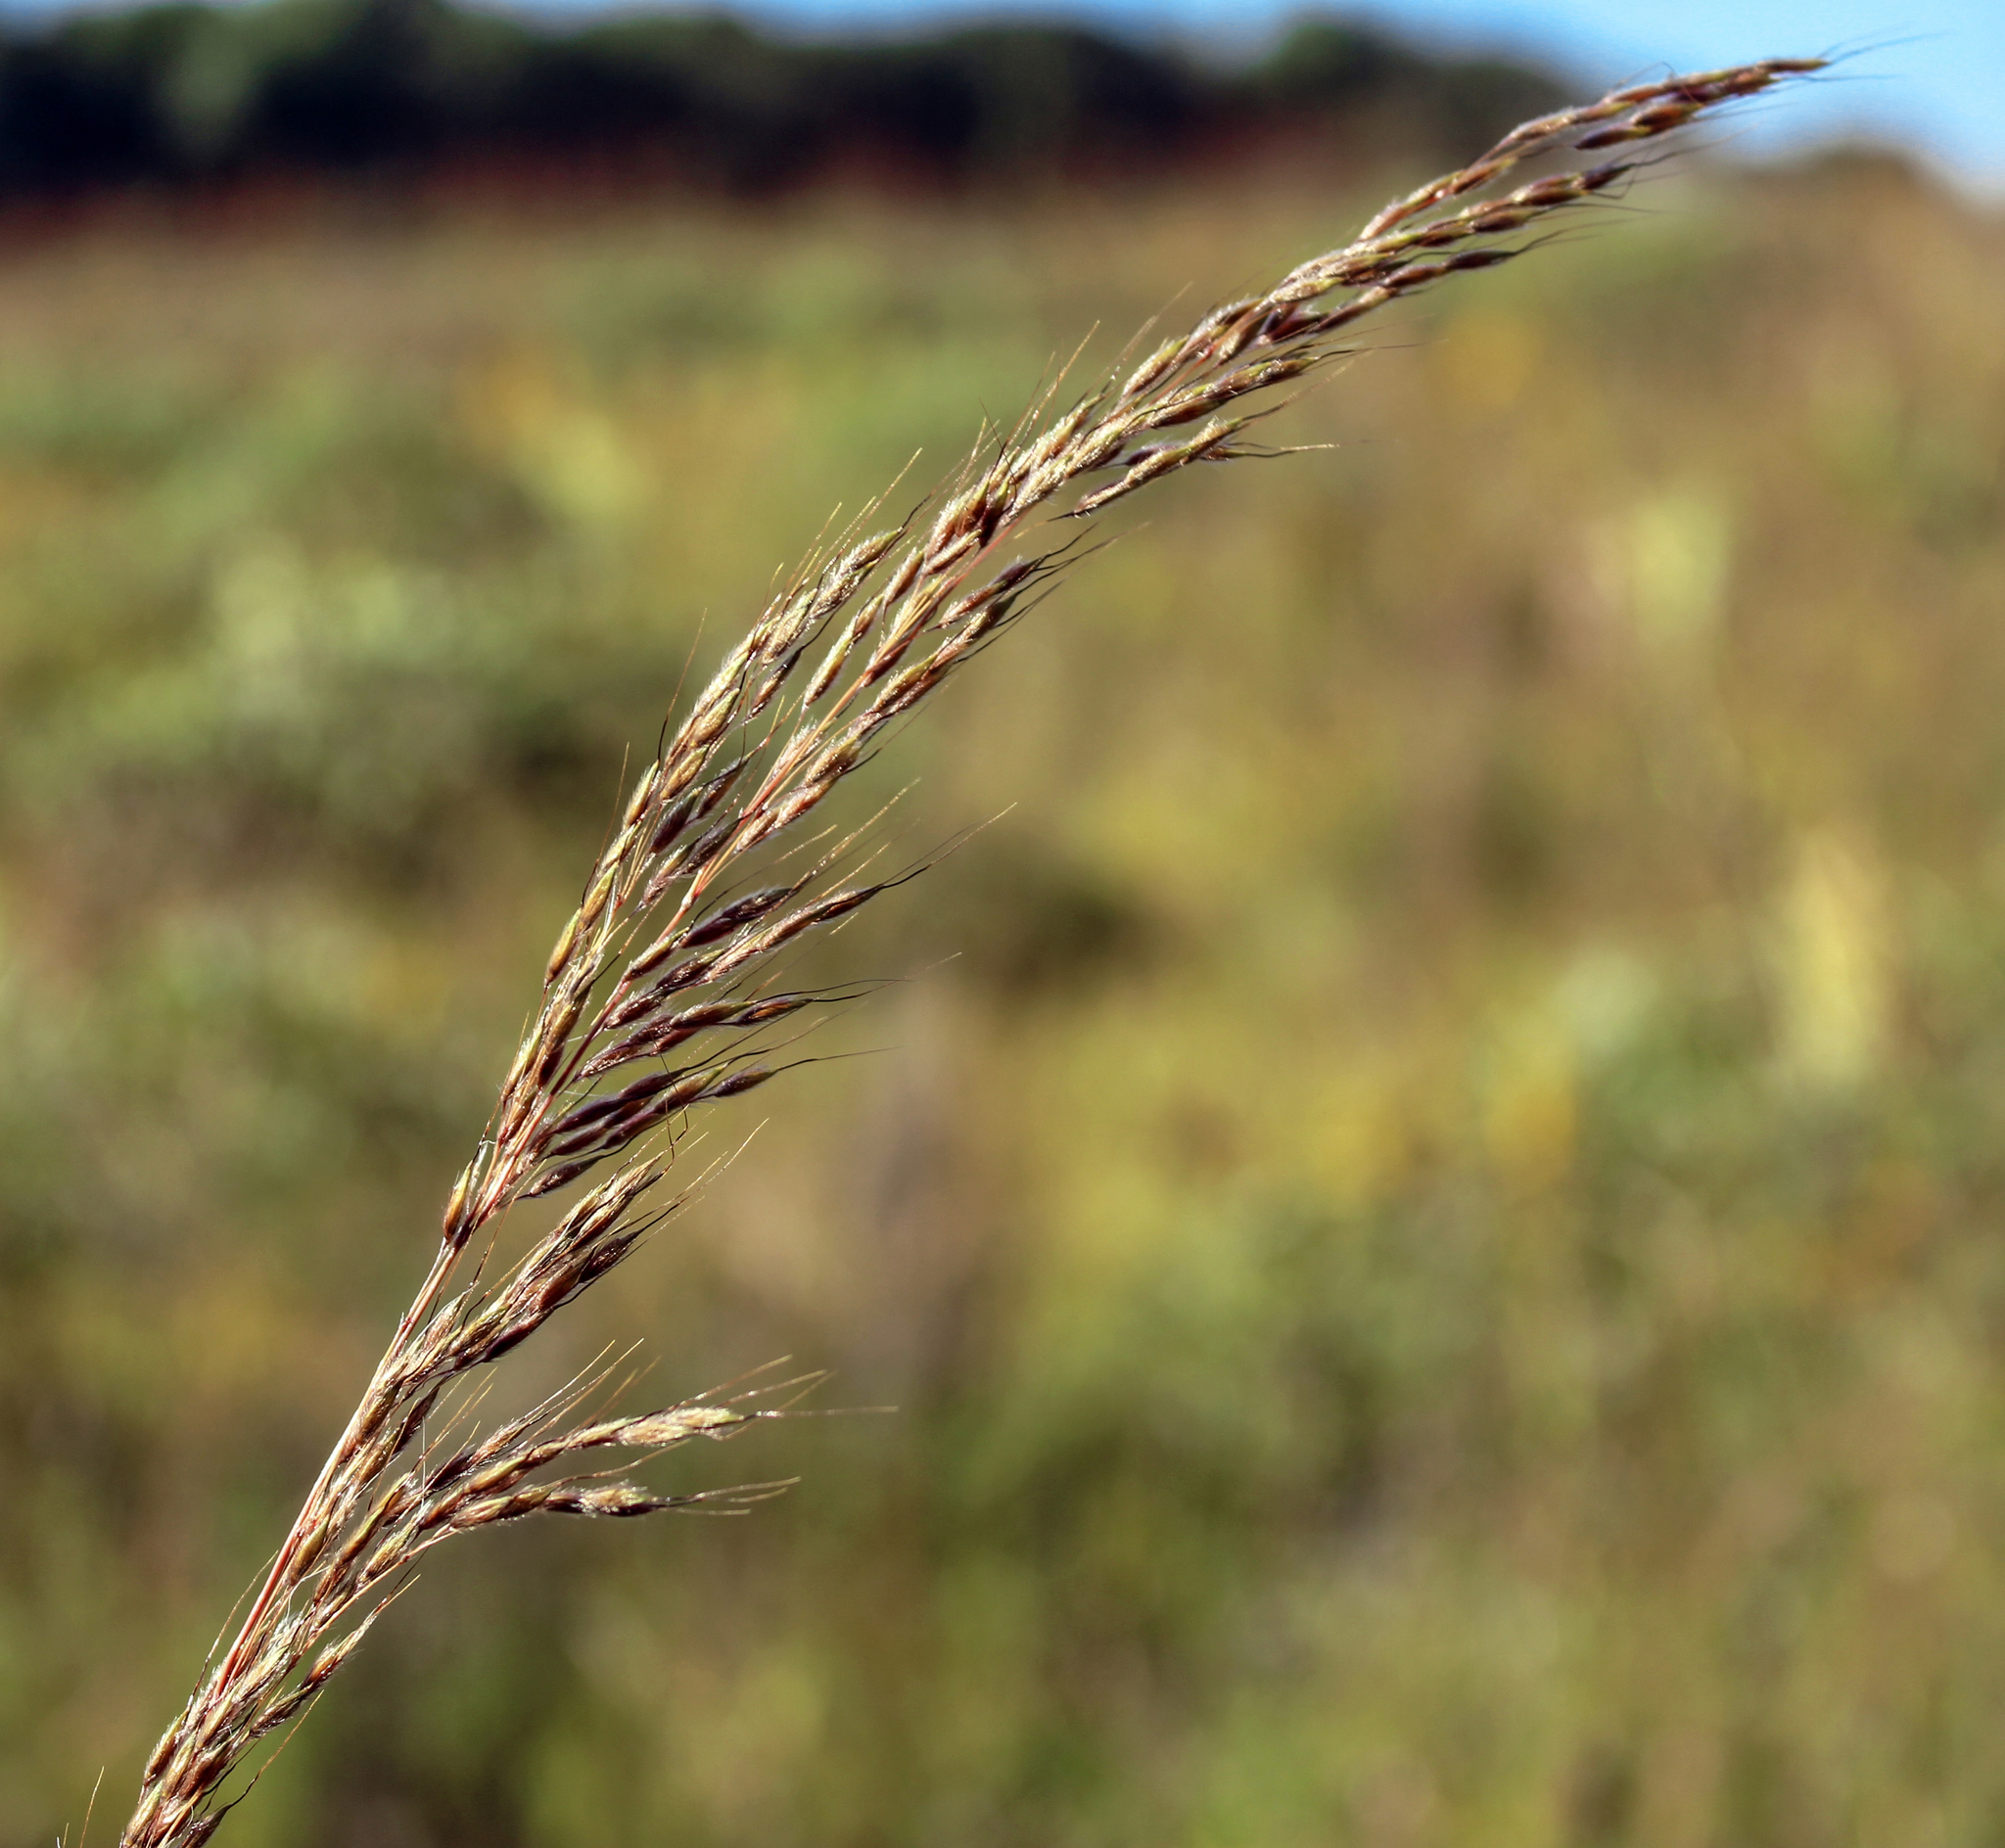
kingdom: Plantae
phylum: Tracheophyta
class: Liliopsida
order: Poales
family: Poaceae
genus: Sorghastrum
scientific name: Sorghastrum nutans
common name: Indian grass
